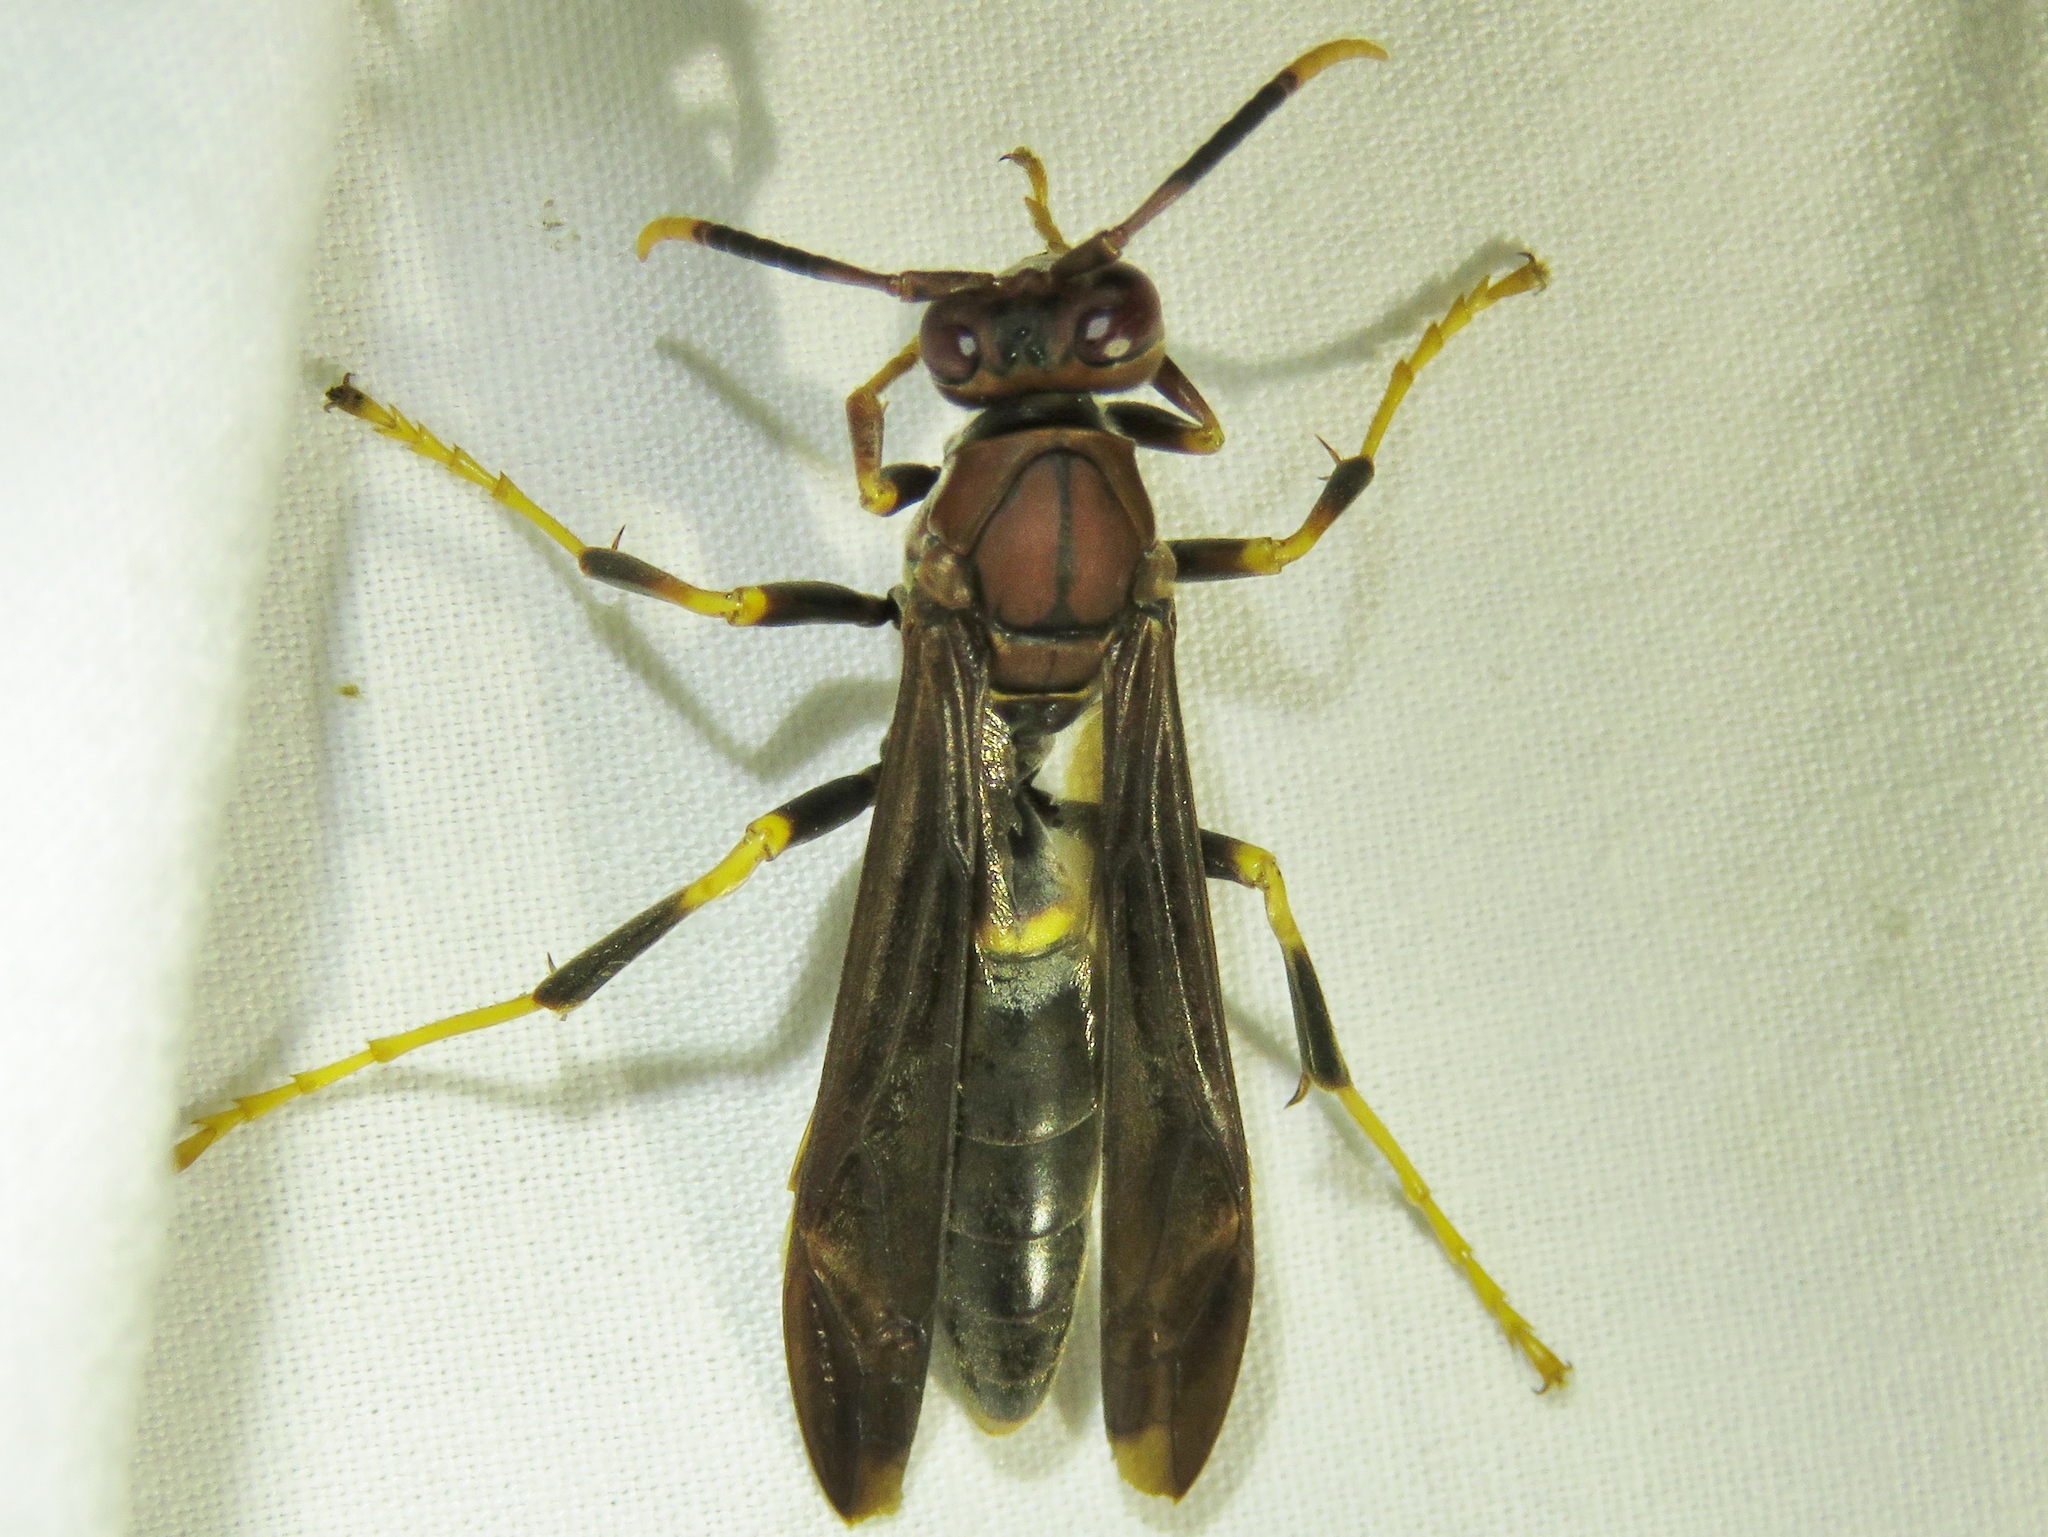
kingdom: Animalia
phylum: Arthropoda
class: Insecta
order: Hymenoptera
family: Eumenidae
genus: Polistes
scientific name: Polistes annularis
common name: Ringed paper wasp
